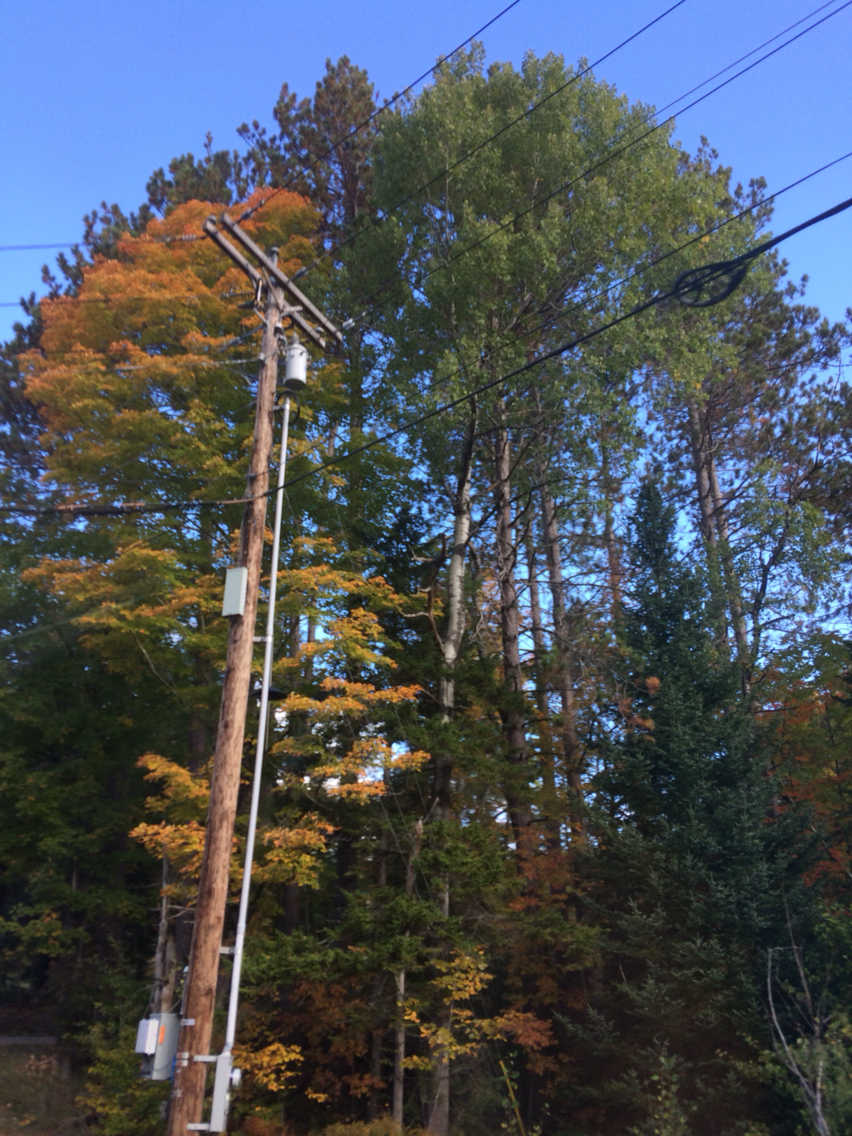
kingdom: Plantae
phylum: Tracheophyta
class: Magnoliopsida
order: Malpighiales
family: Salicaceae
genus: Populus
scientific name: Populus tremuloides
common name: Quaking aspen
